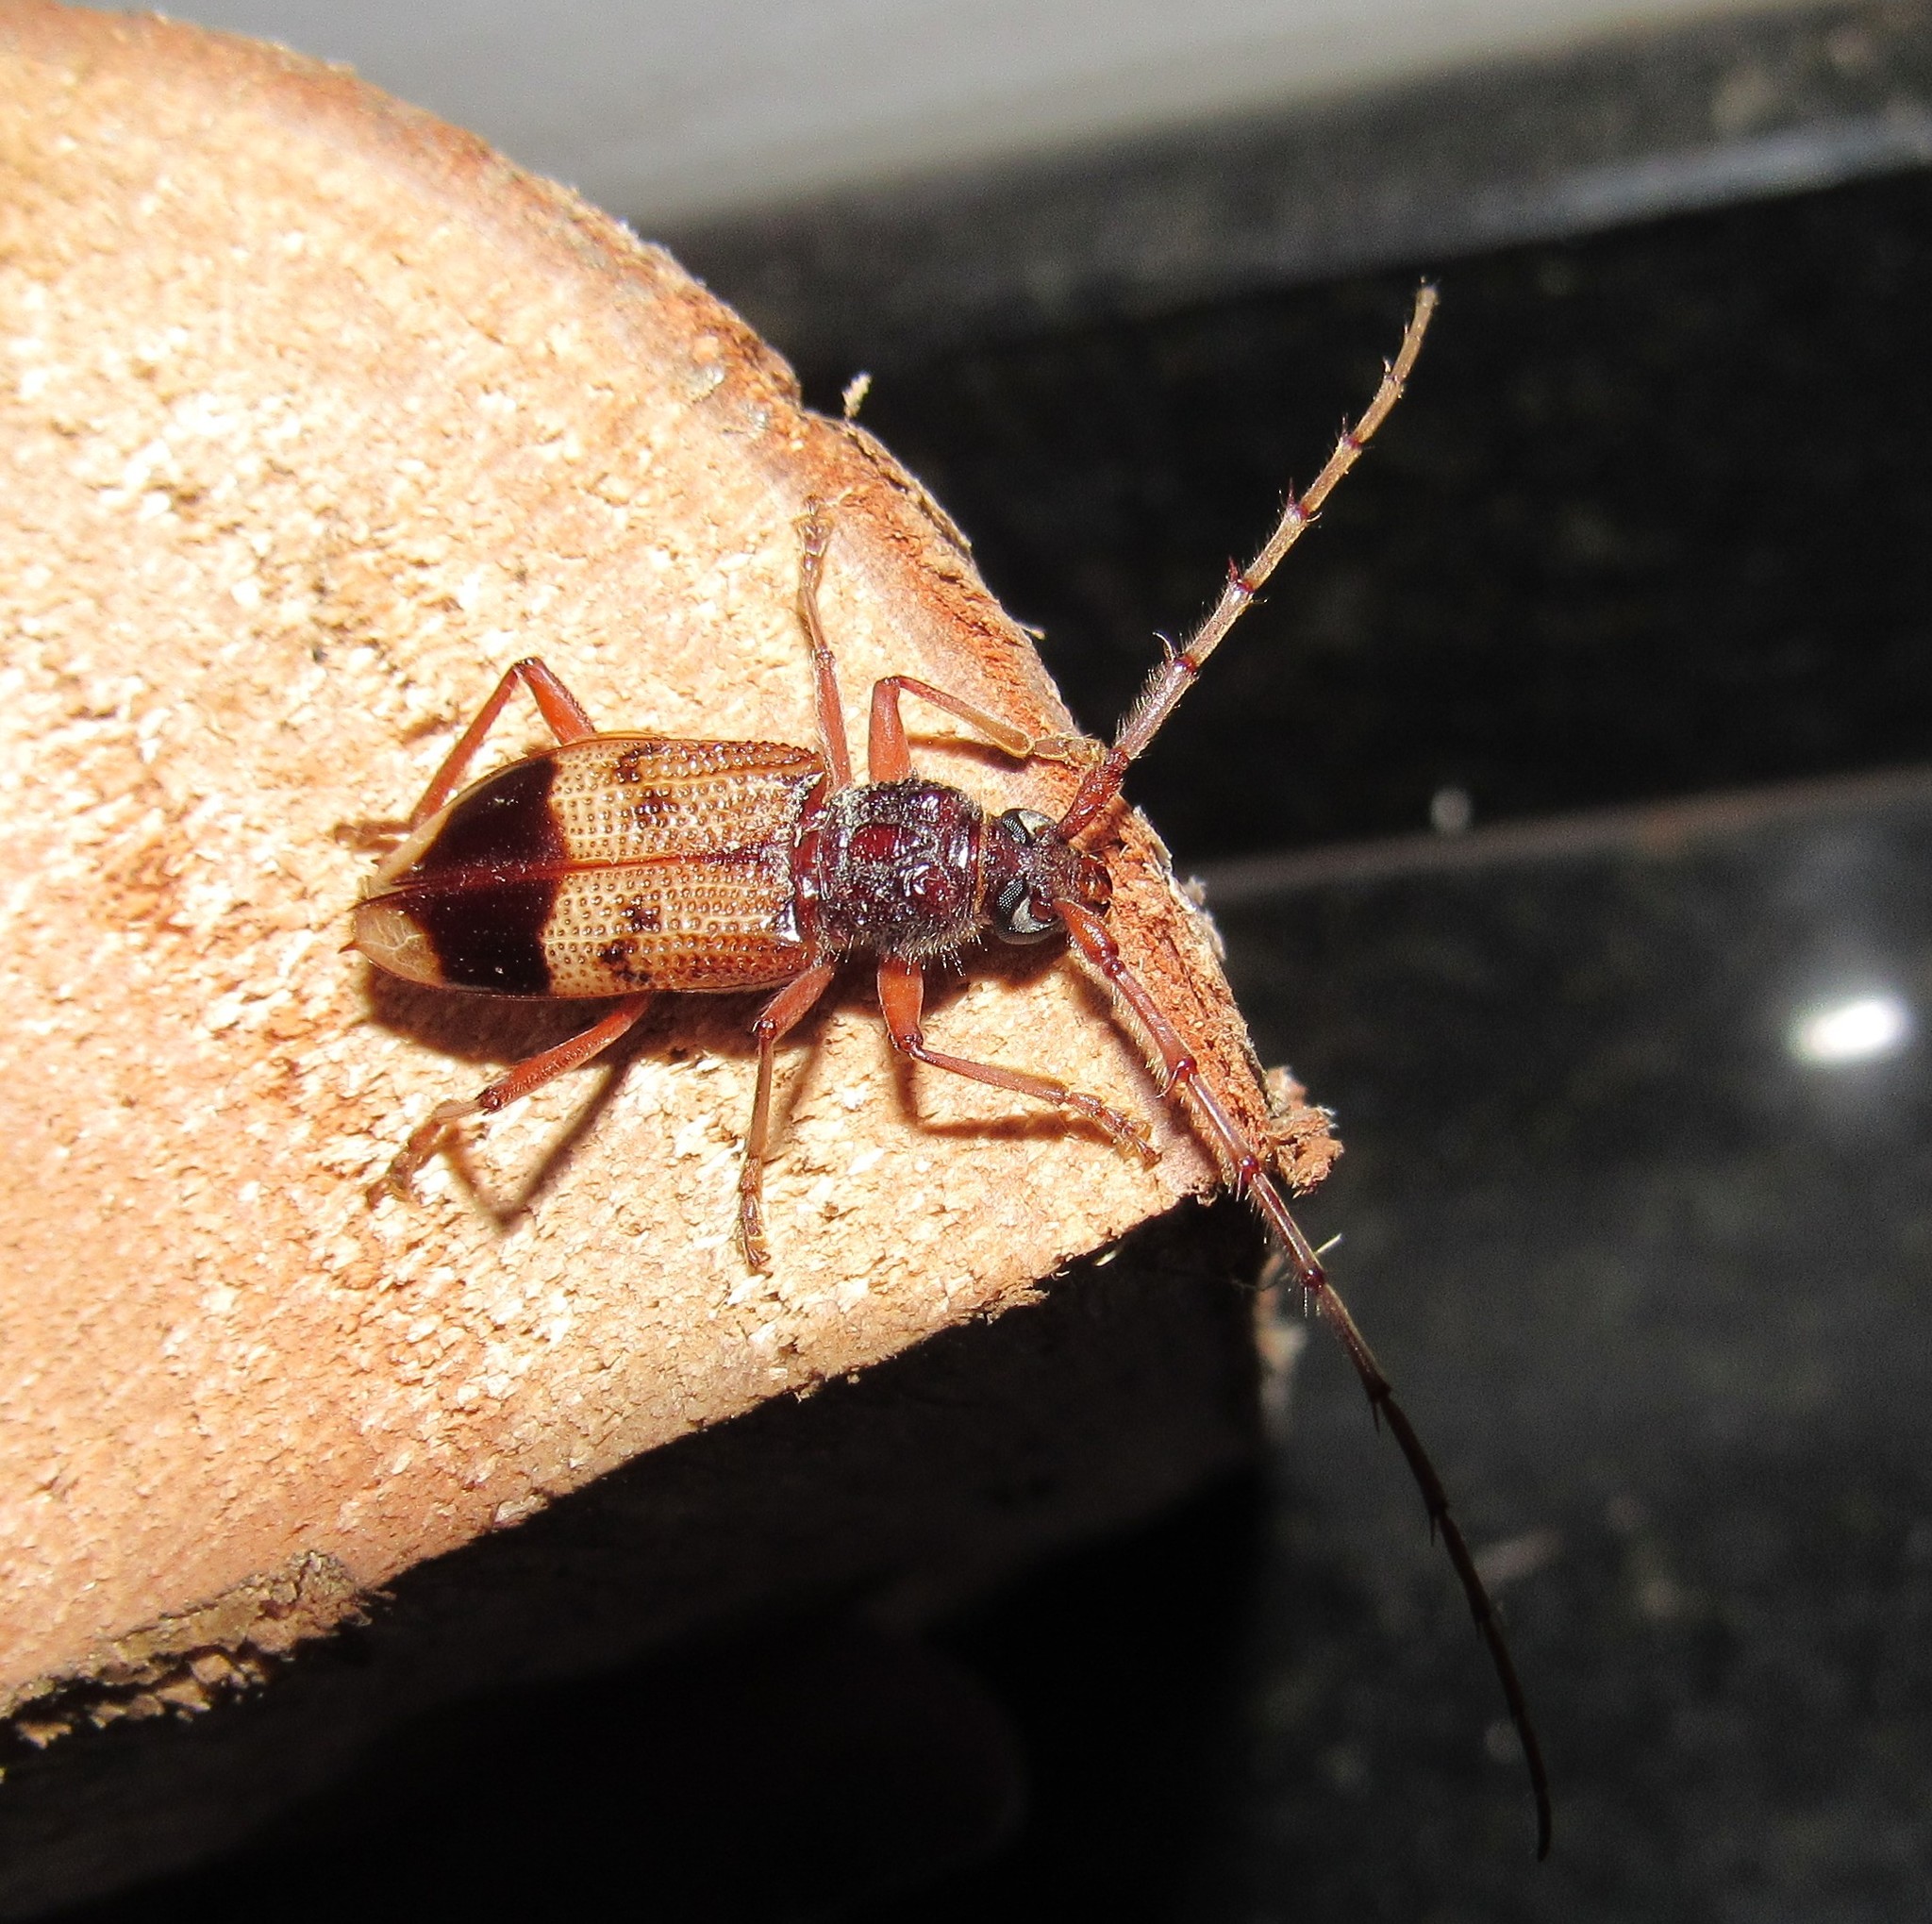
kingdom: Animalia
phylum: Arthropoda
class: Insecta
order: Coleoptera
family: Cerambycidae
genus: Phoracantha
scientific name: Phoracantha recurva
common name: Eucalyptus longhorned borer
